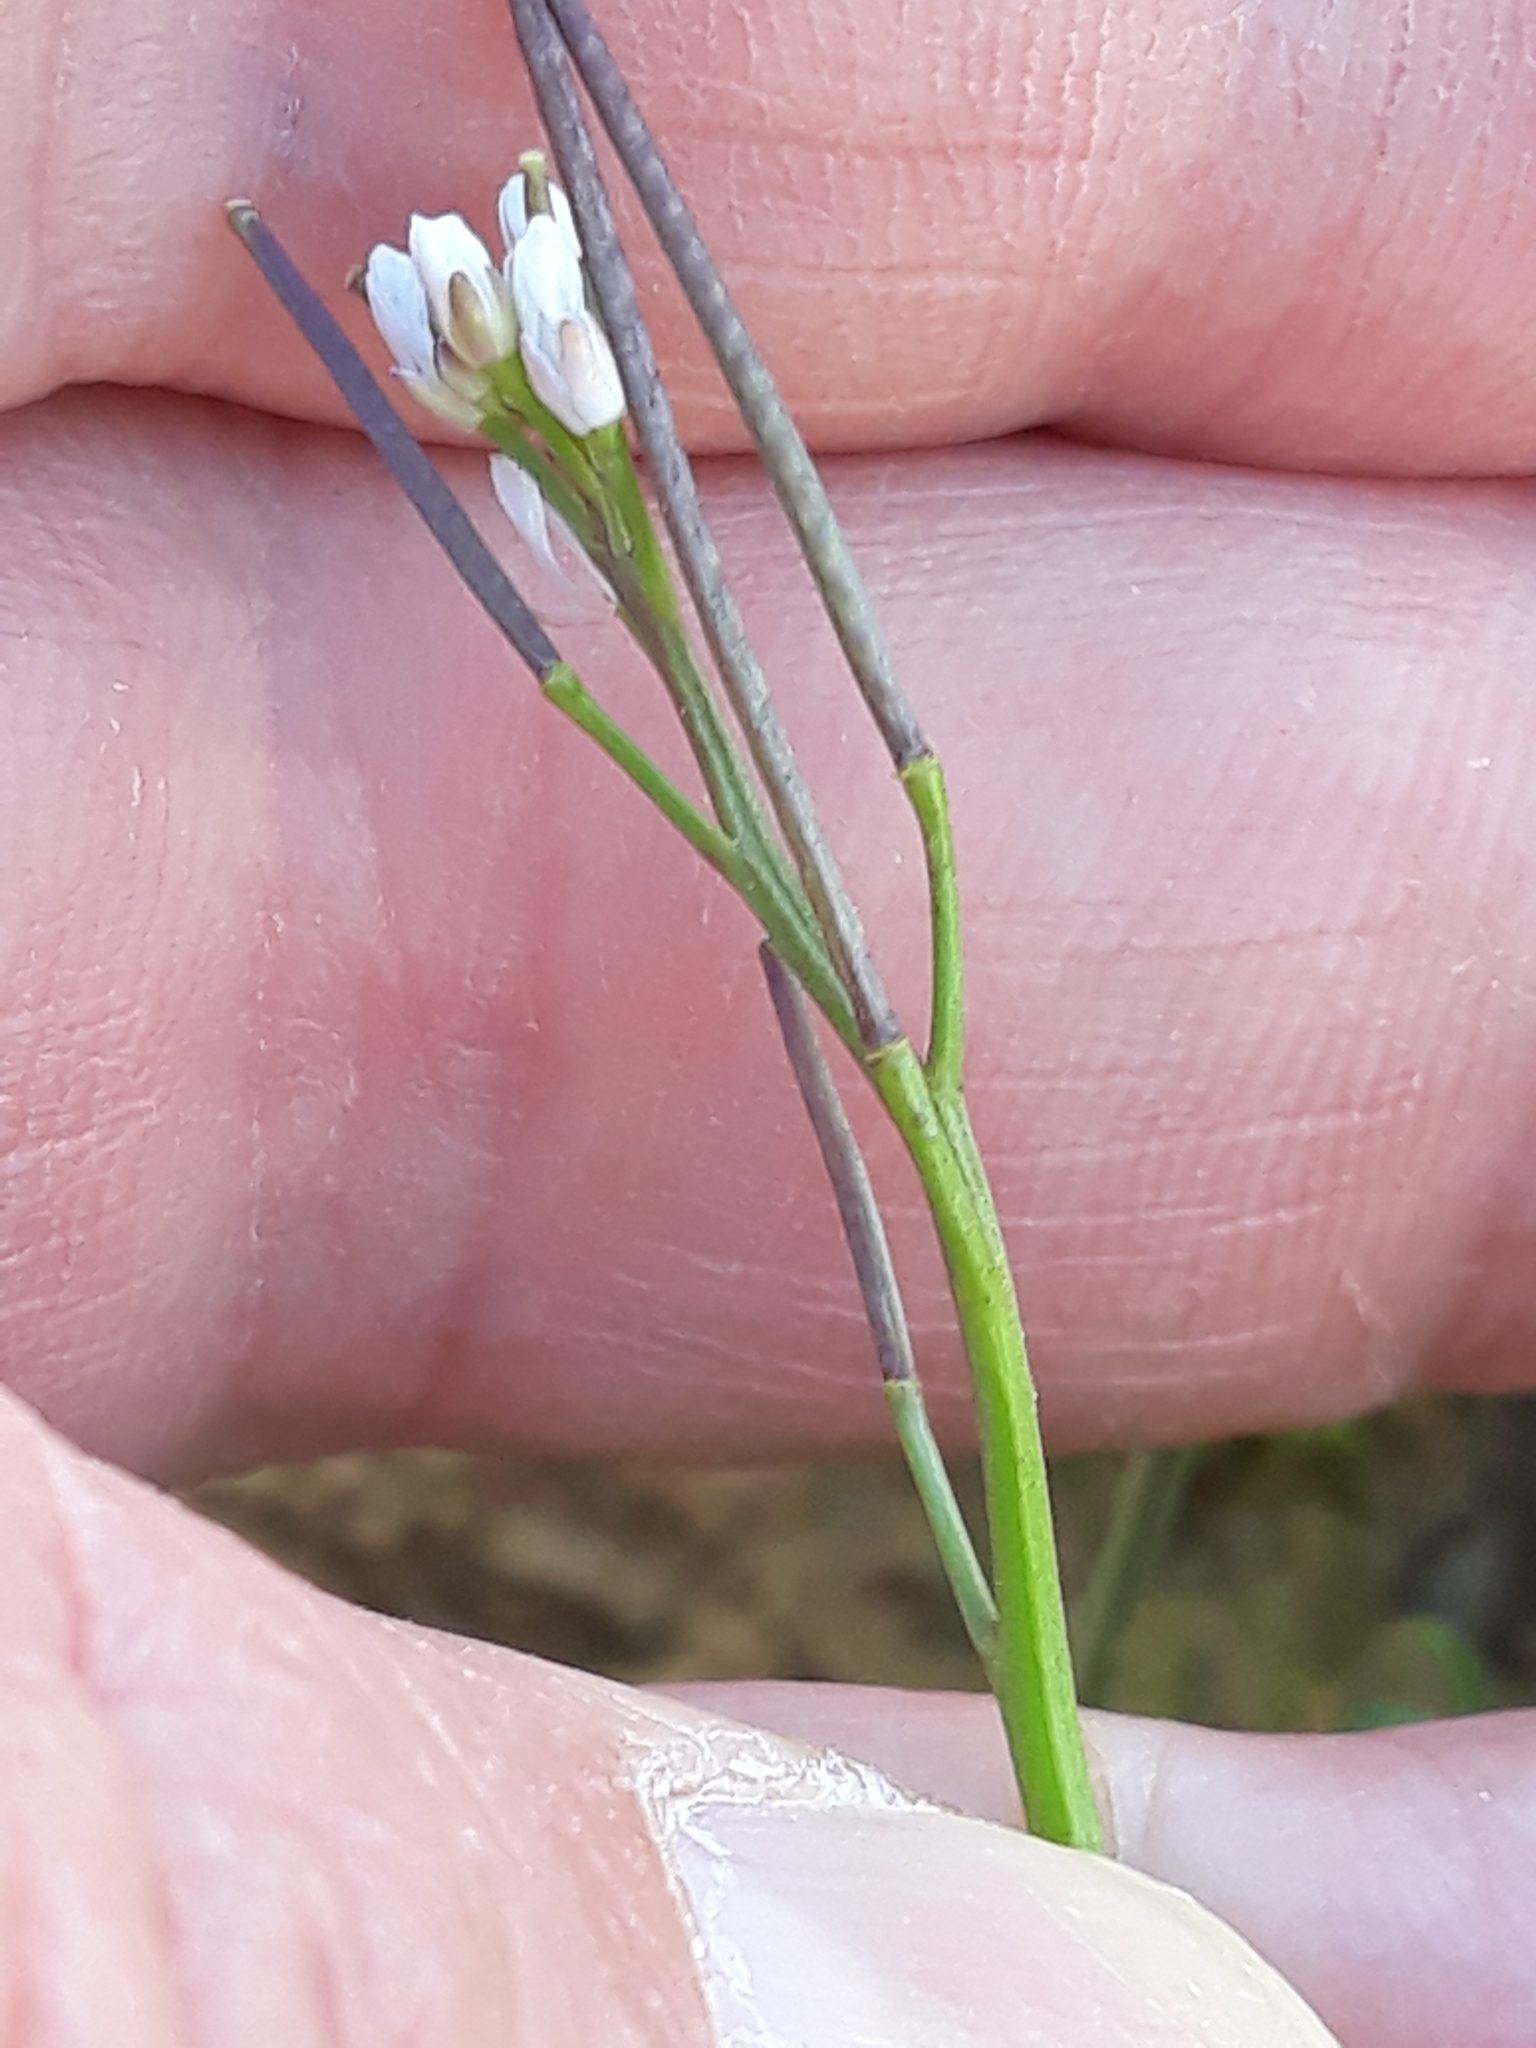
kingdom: Plantae
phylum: Tracheophyta
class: Magnoliopsida
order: Brassicales
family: Brassicaceae
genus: Cardamine
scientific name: Cardamine hirsuta
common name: Hairy bittercress
